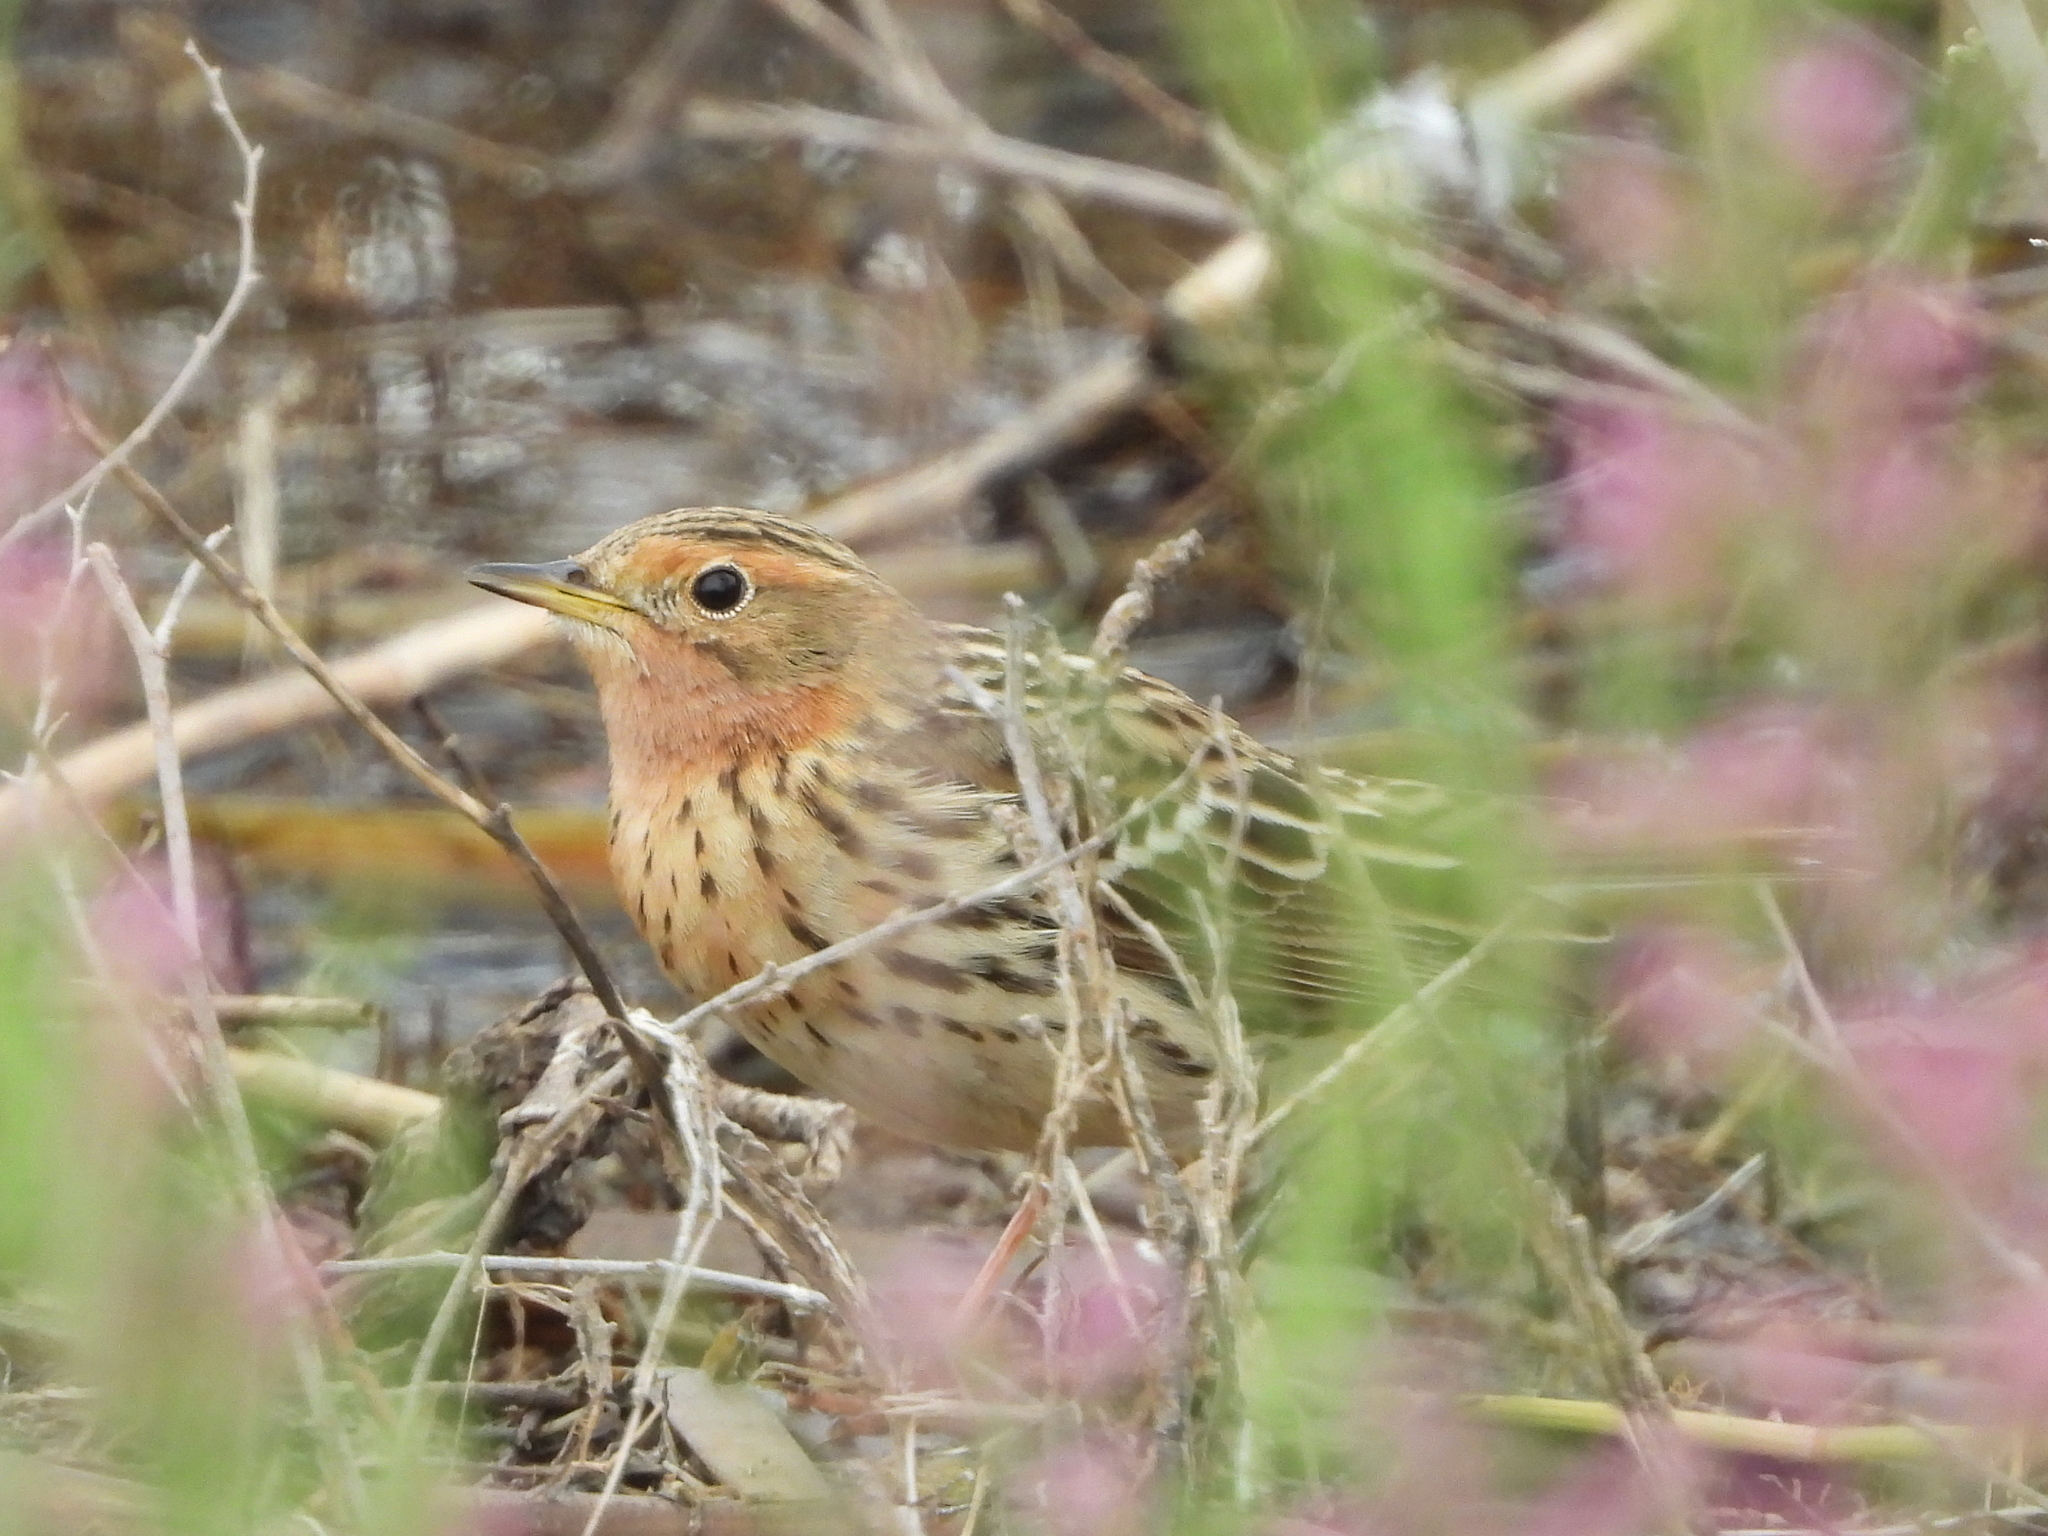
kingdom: Animalia
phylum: Chordata
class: Aves
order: Passeriformes
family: Motacillidae
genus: Anthus
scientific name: Anthus cervinus
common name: Red-throated pipit
